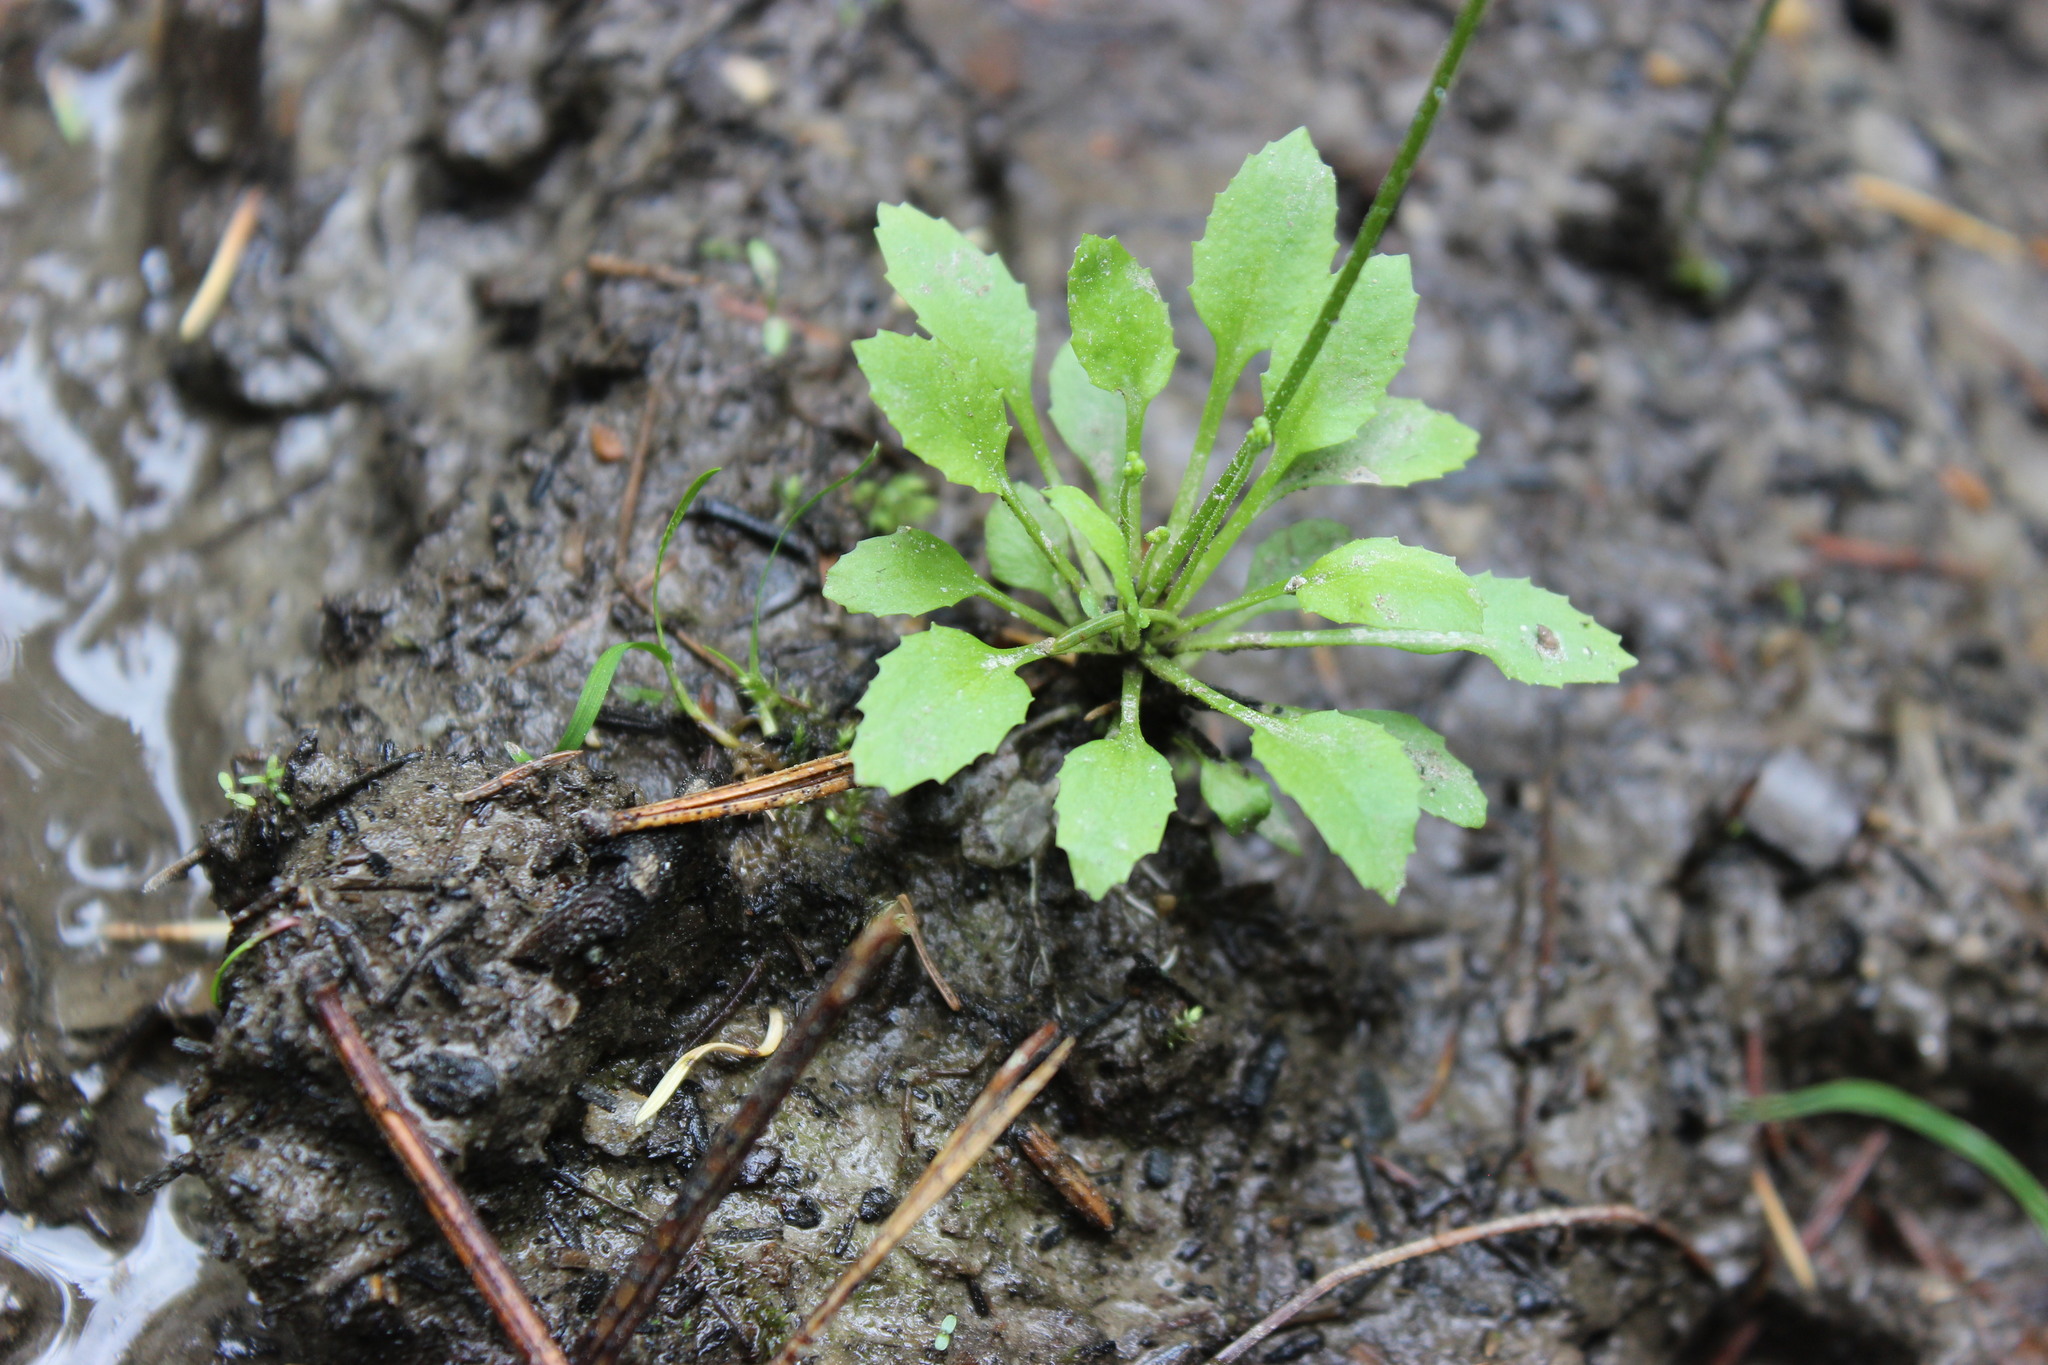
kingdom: Plantae
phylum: Tracheophyta
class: Magnoliopsida
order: Ericales
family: Primulaceae
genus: Androsace
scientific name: Androsace filiformis
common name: Filiform rock jasmine
